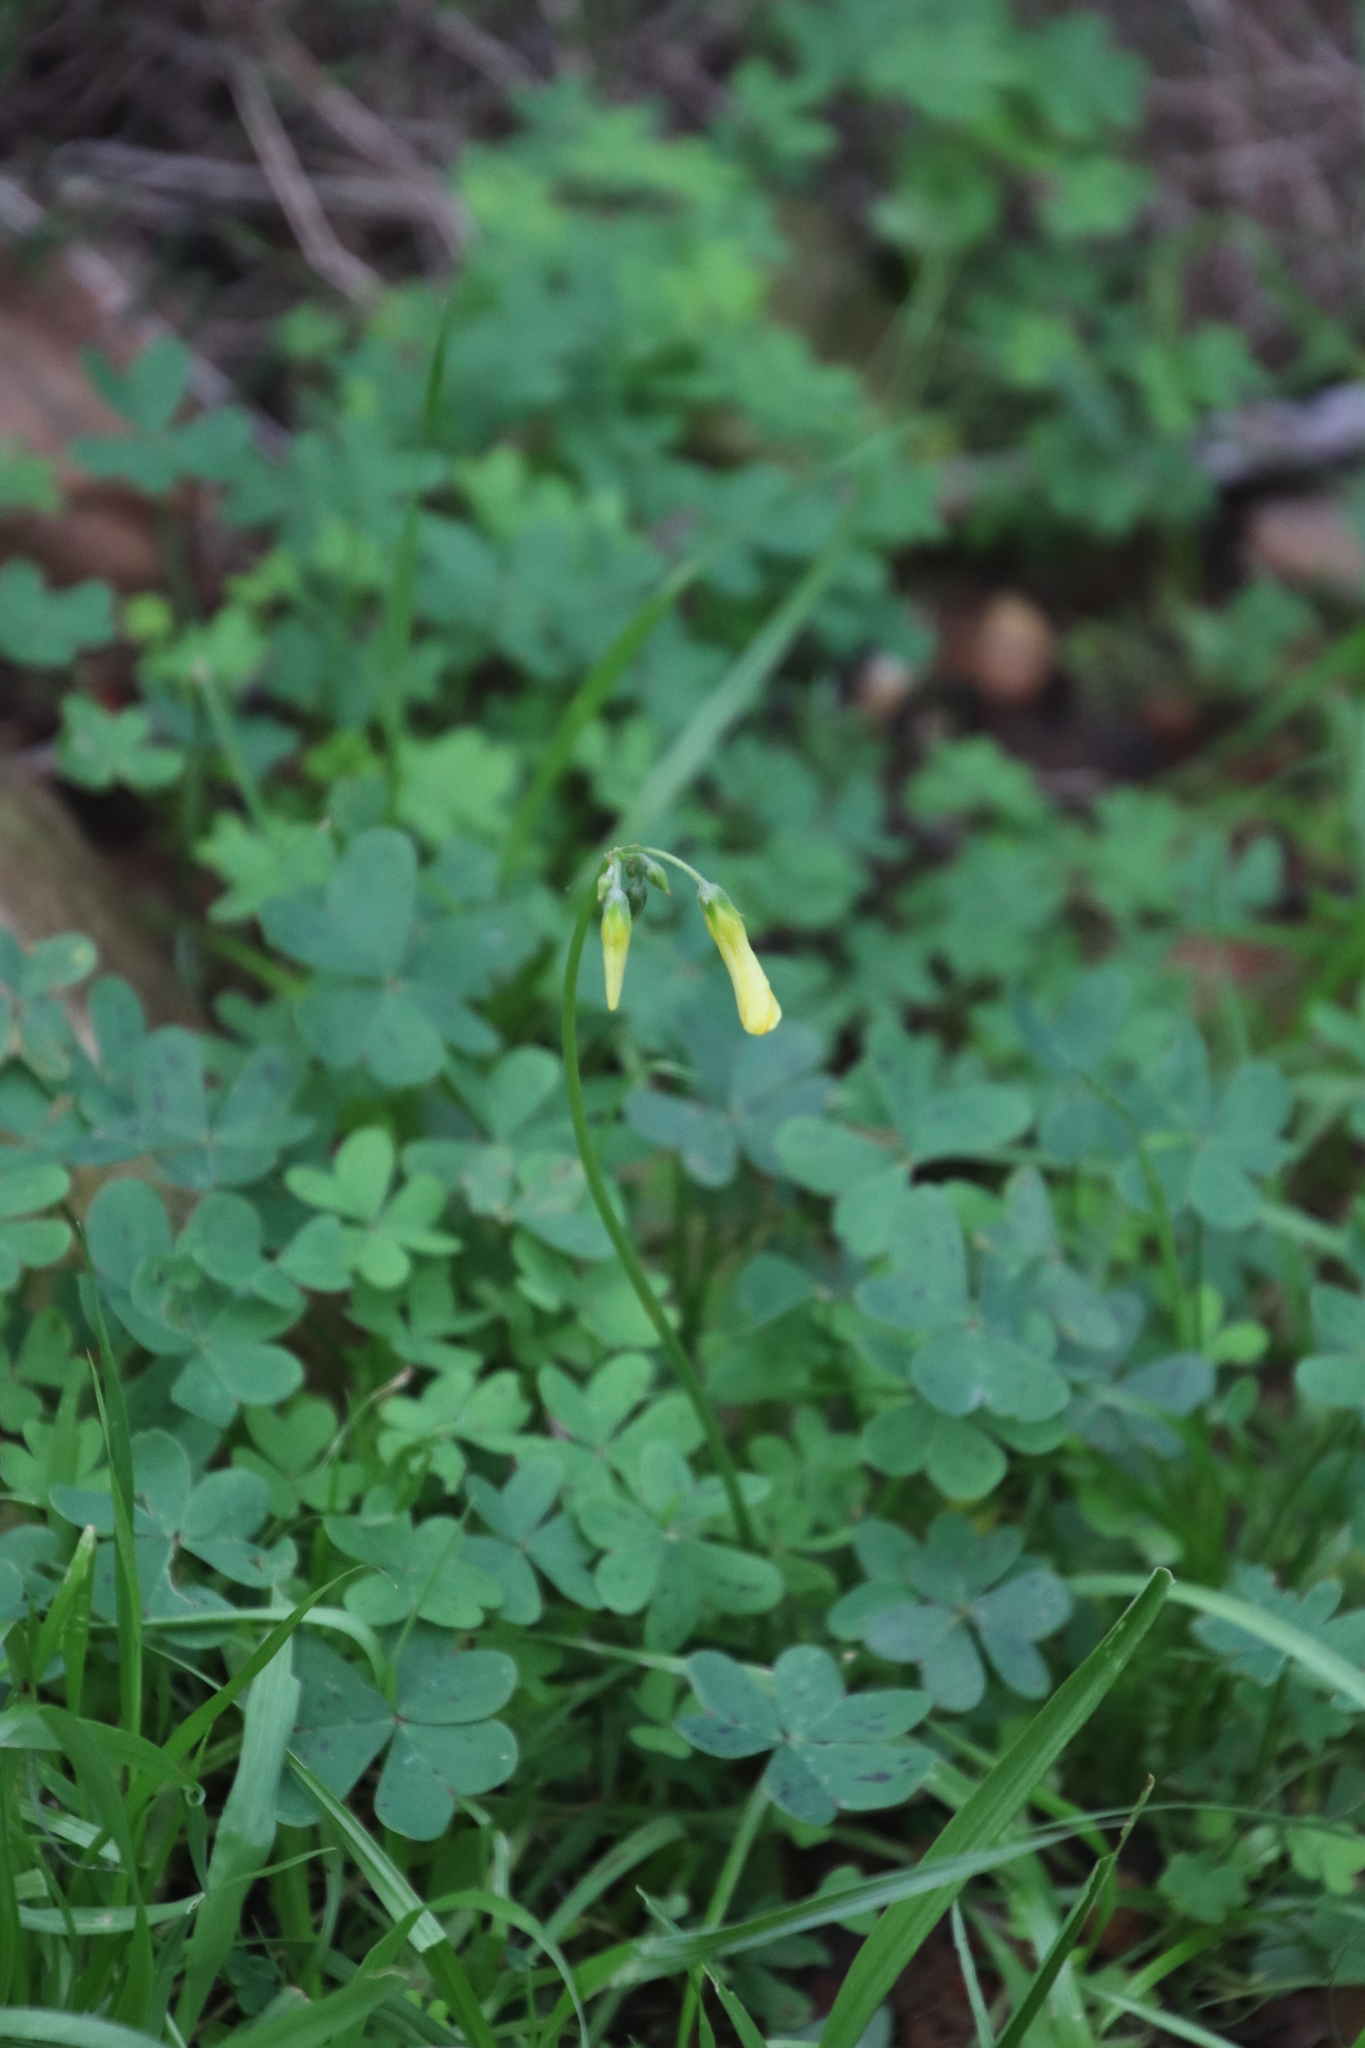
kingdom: Plantae
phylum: Tracheophyta
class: Magnoliopsida
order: Oxalidales
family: Oxalidaceae
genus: Oxalis
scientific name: Oxalis pes-caprae
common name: Bermuda-buttercup
